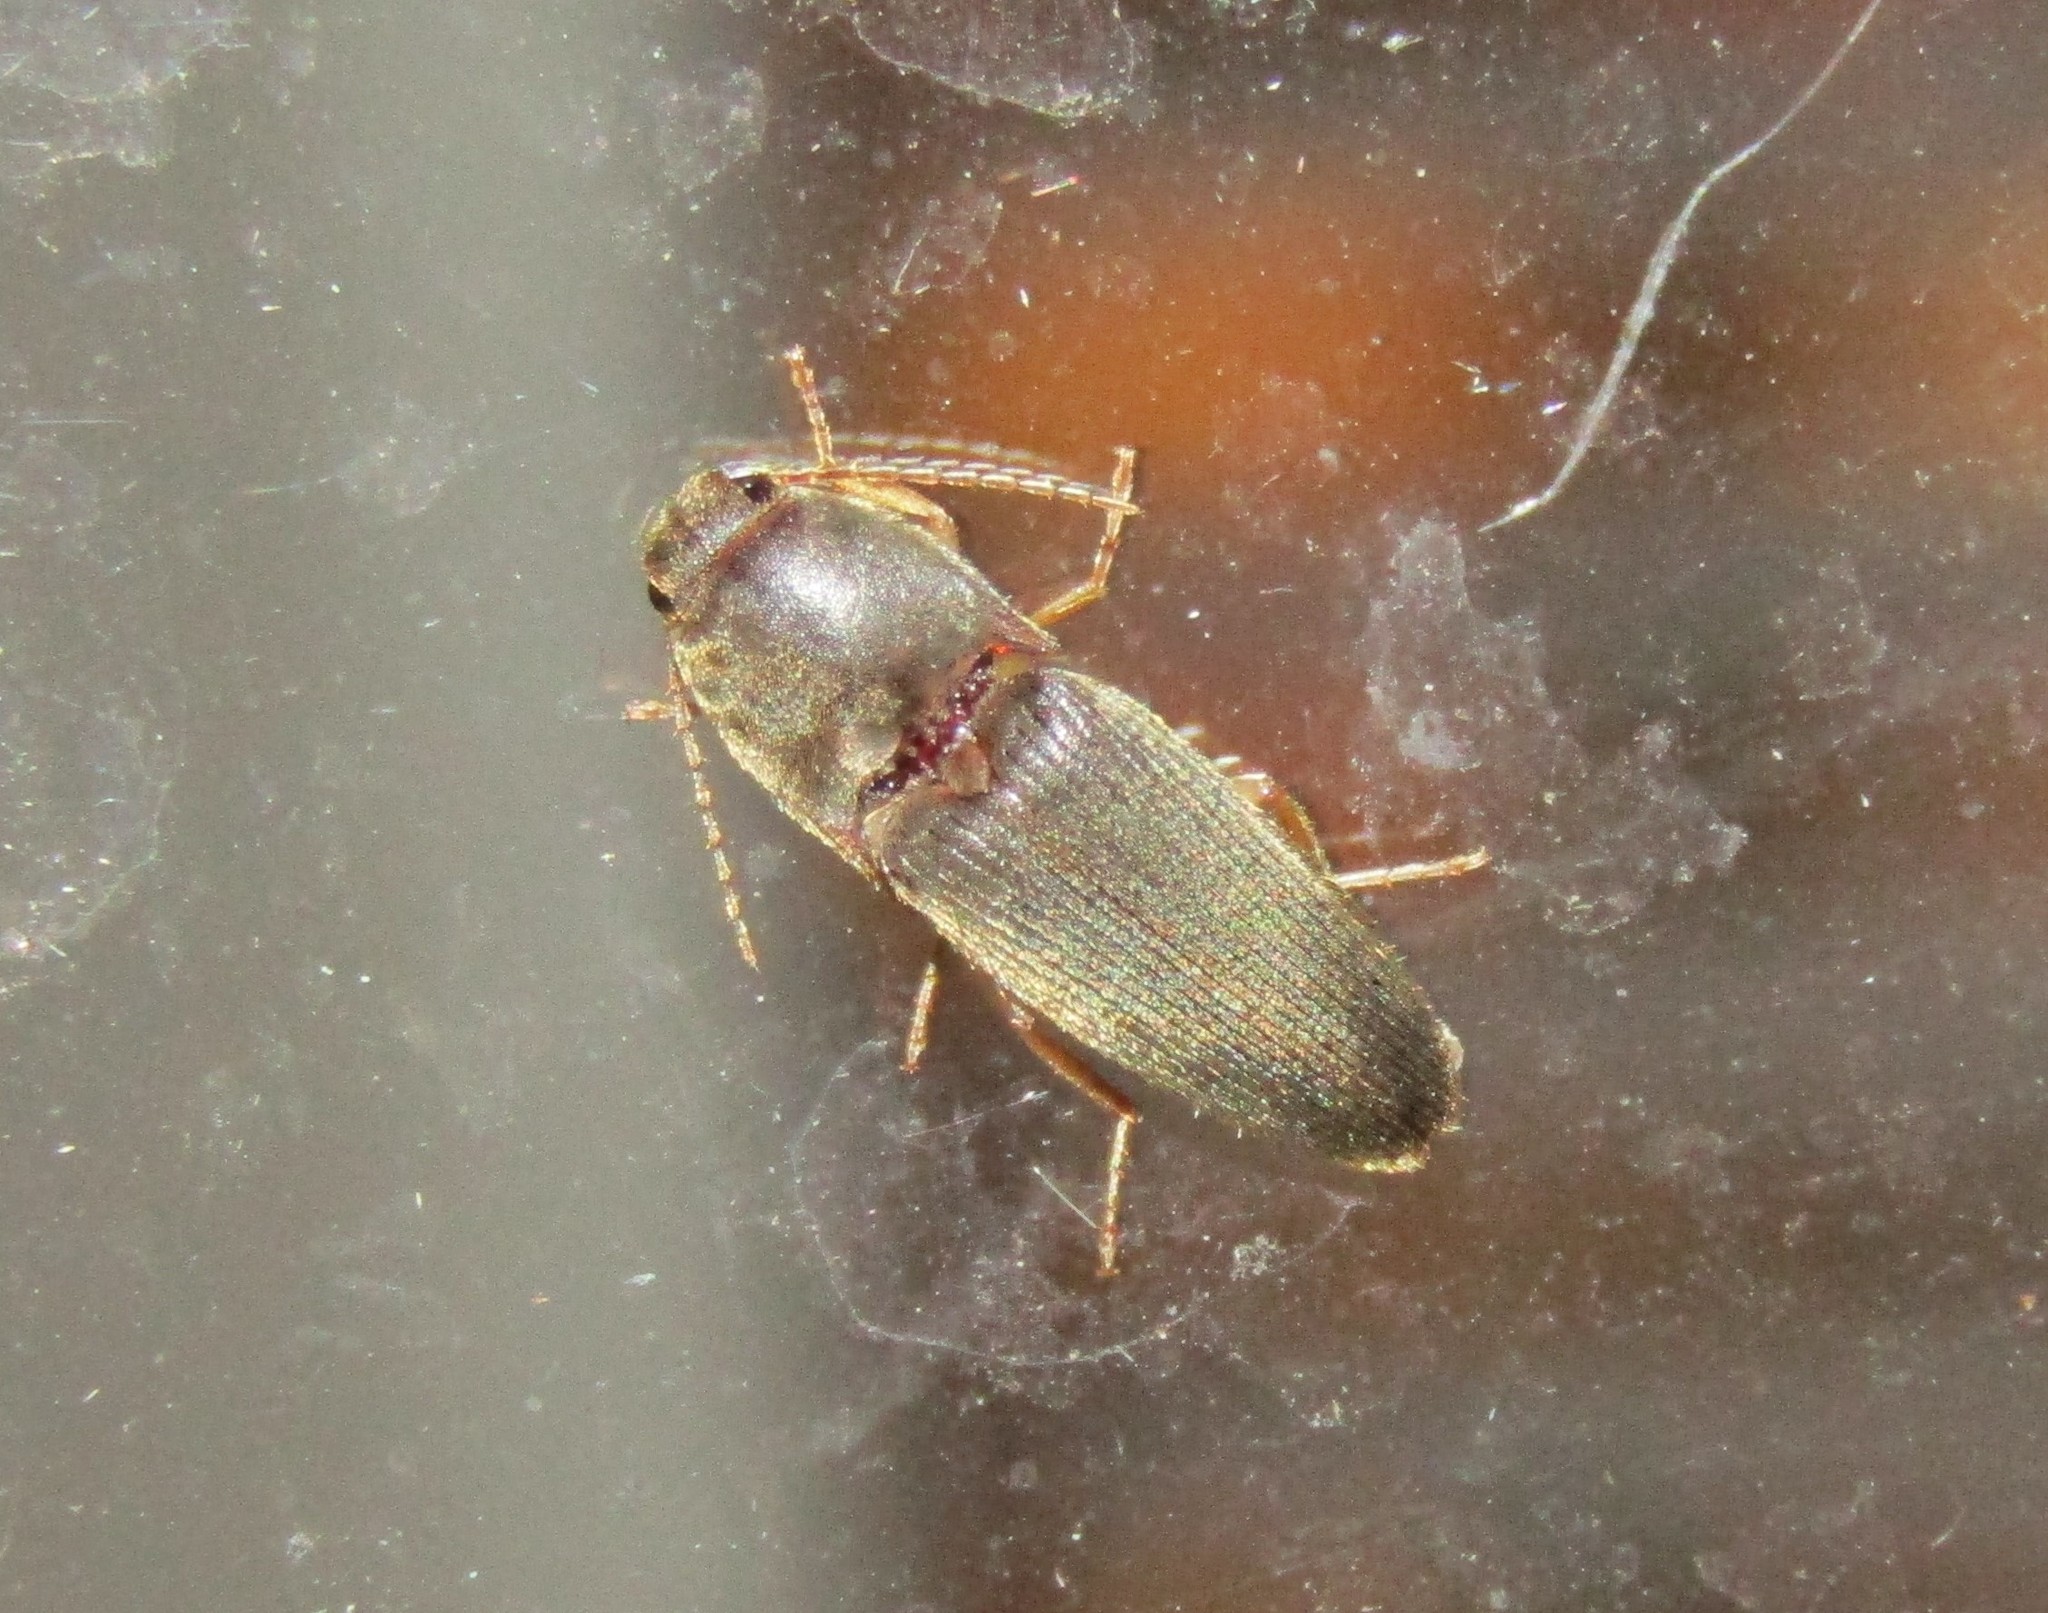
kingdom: Animalia
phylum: Arthropoda
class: Insecta
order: Coleoptera
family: Elateridae
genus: Conoderus
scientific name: Conoderus exsul
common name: Click beetle
